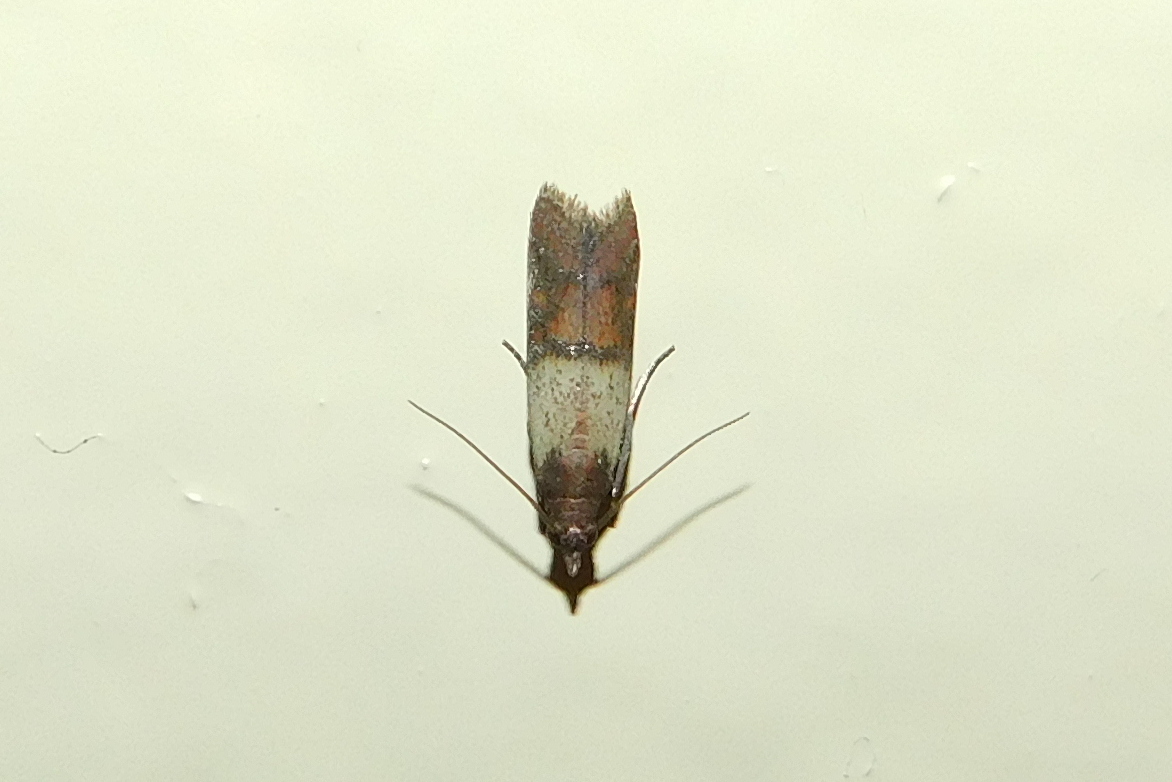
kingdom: Animalia
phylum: Arthropoda
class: Insecta
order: Lepidoptera
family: Pyralidae
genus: Plodia
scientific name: Plodia interpunctella
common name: Indian meal moth
